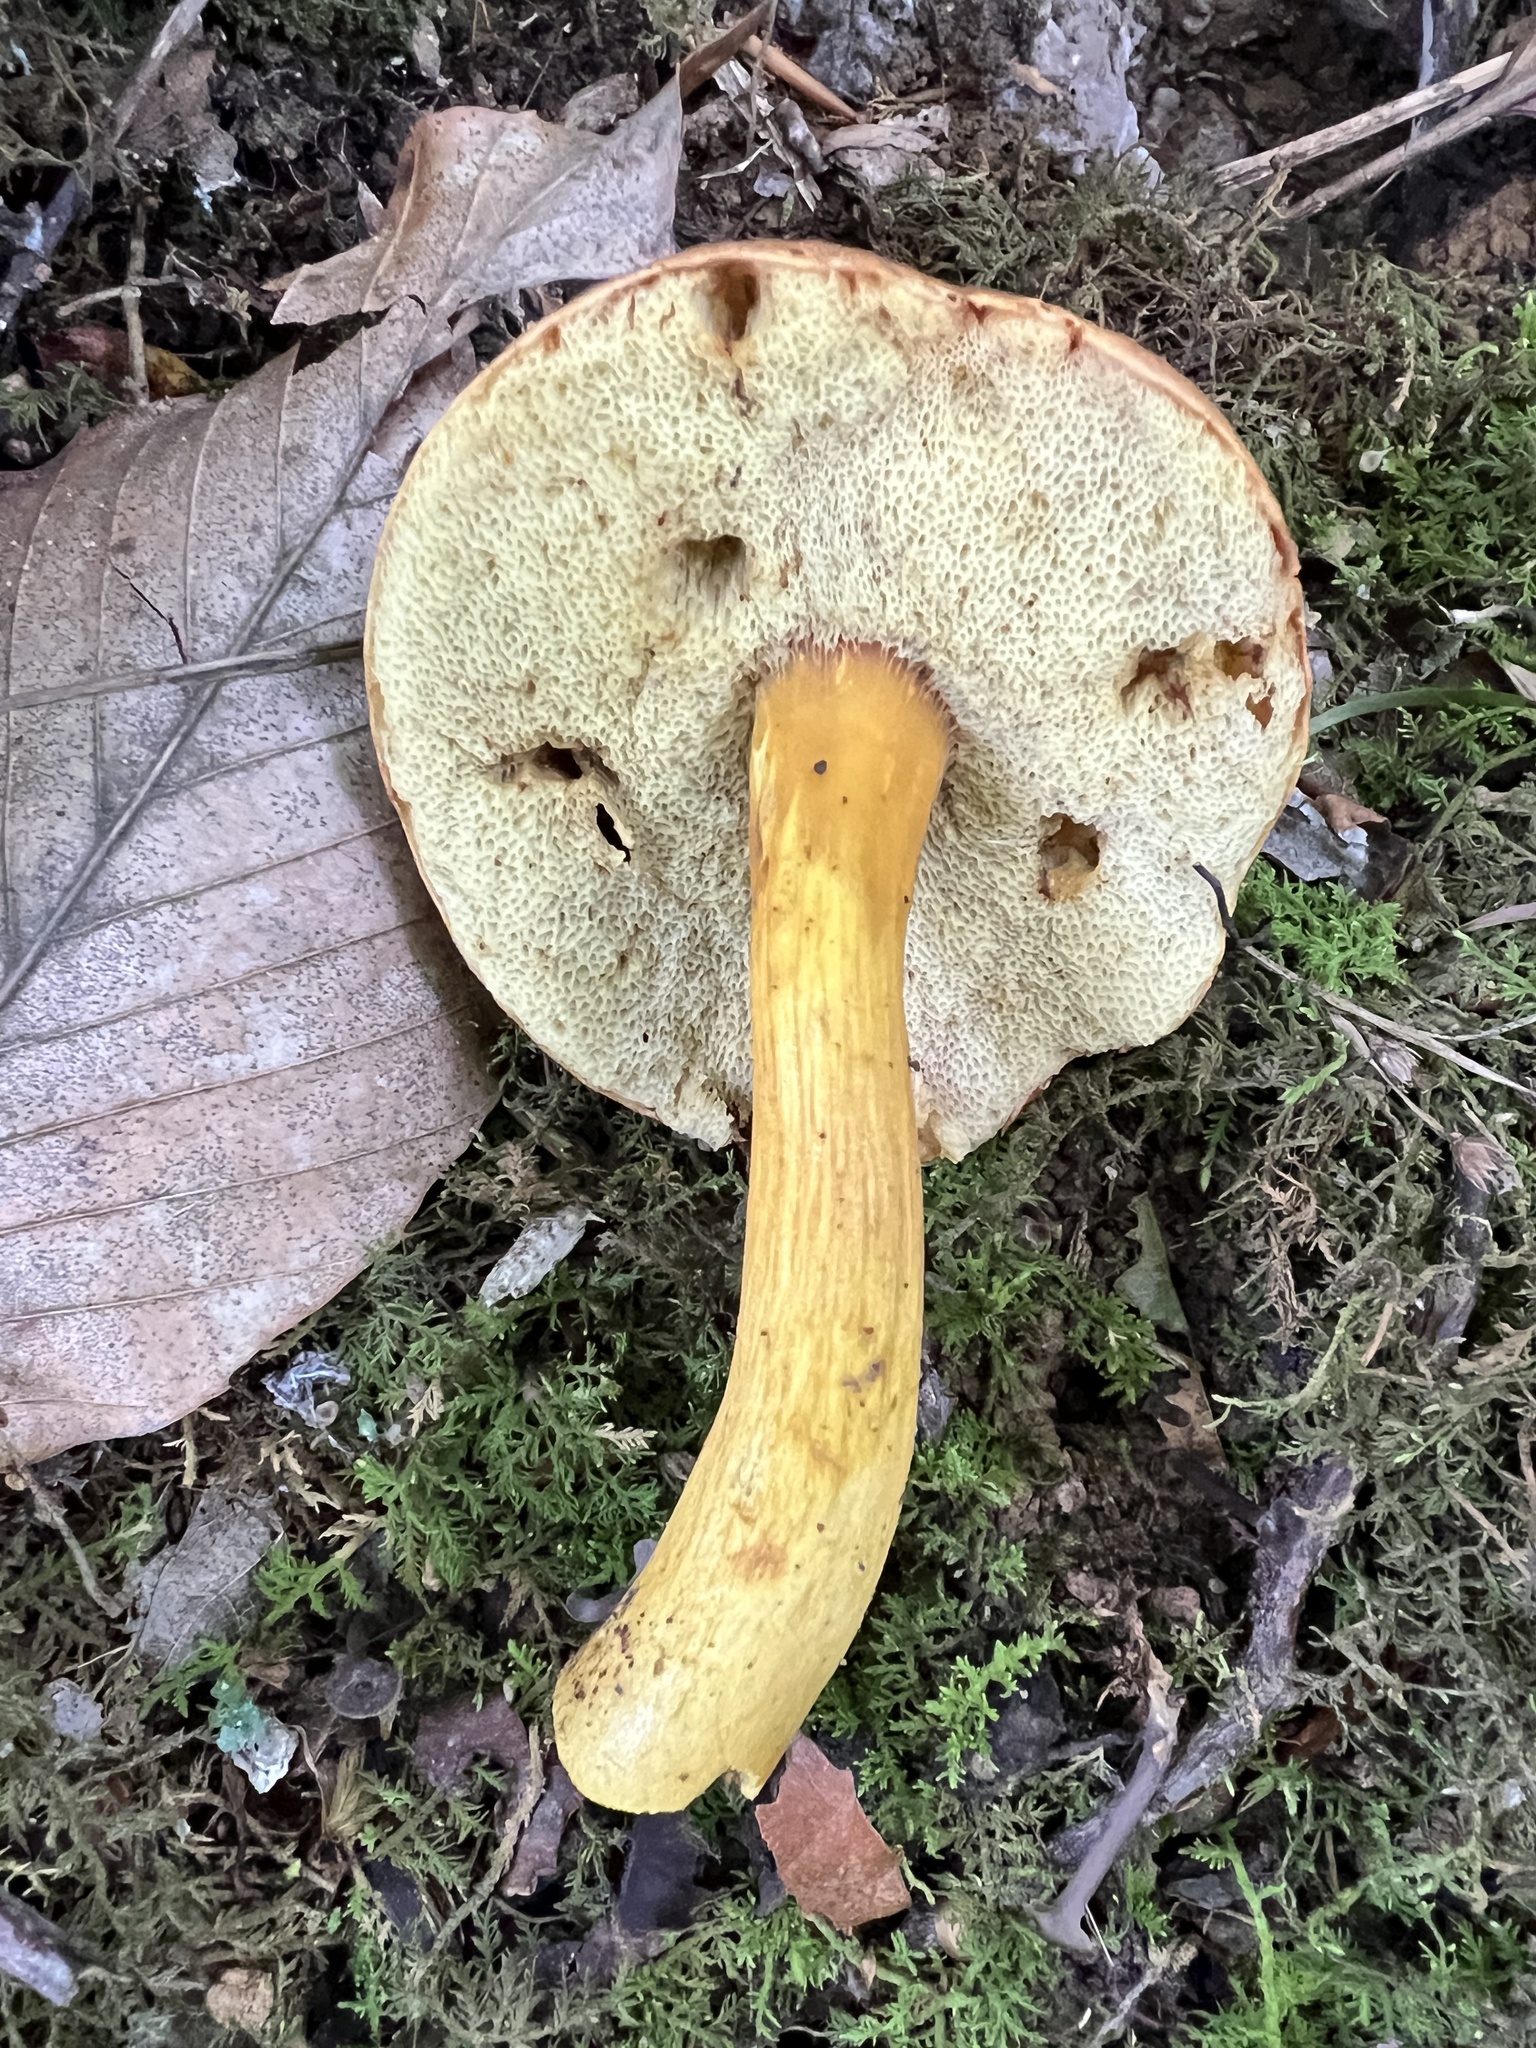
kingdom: Fungi
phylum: Basidiomycota
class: Agaricomycetes
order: Boletales
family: Boletaceae
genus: Aureoboletus
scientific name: Aureoboletus roxanae
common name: Roxane's bolete
